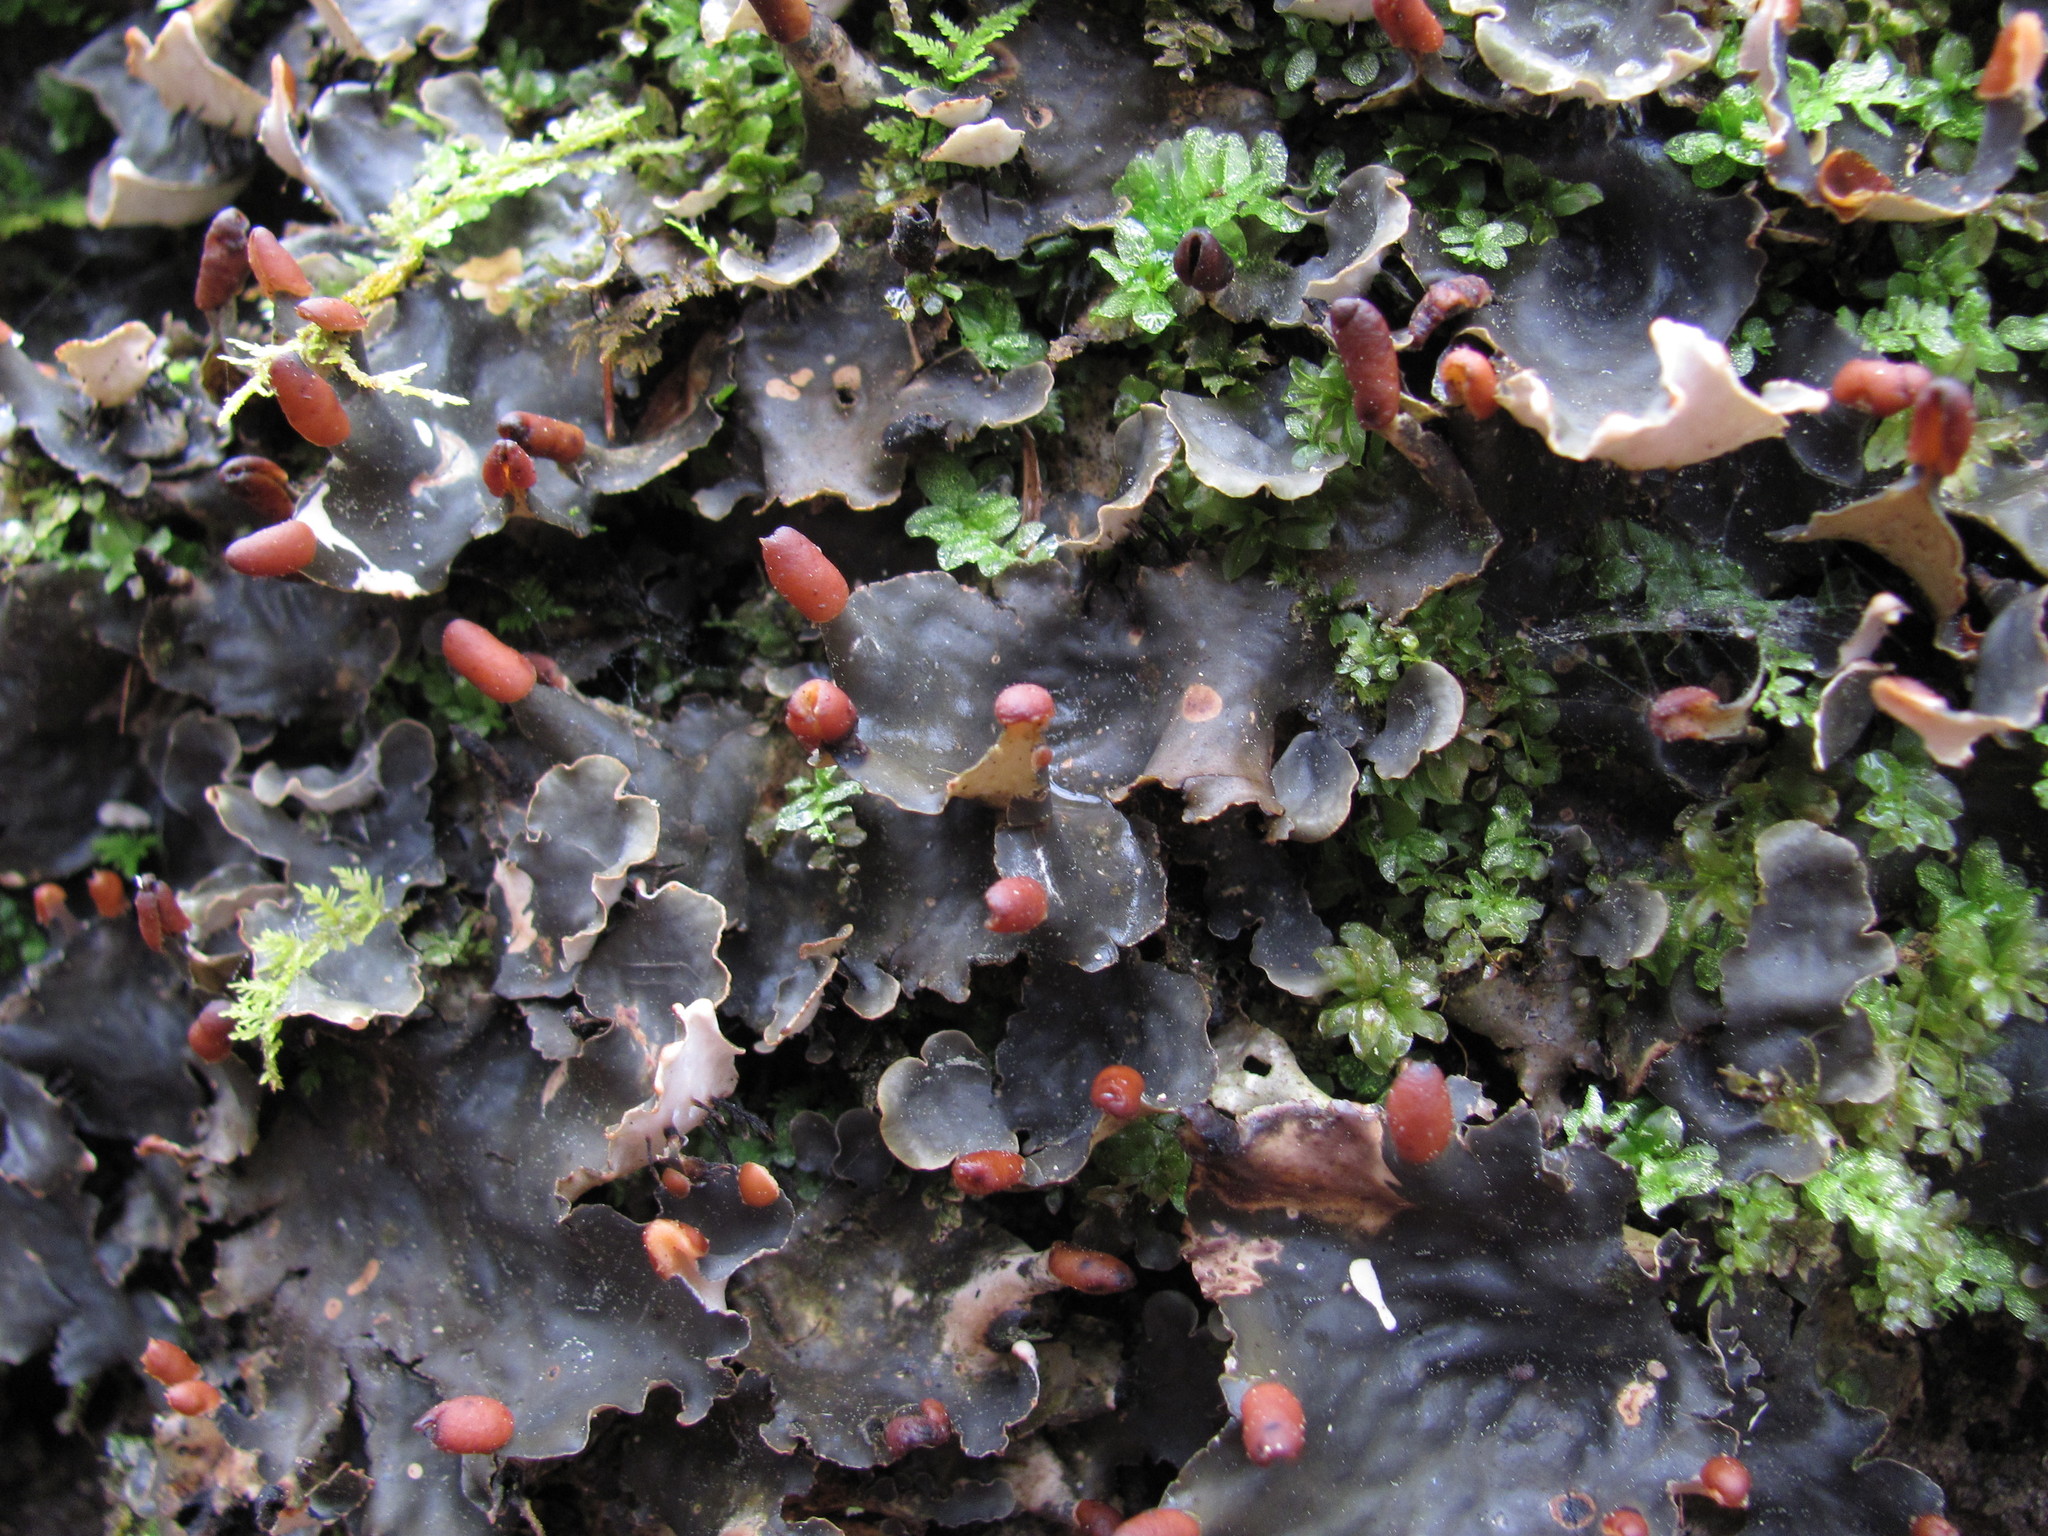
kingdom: Fungi
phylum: Ascomycota
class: Lecanoromycetes
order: Peltigerales
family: Peltigeraceae
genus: Peltigera
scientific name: Peltigera praetextata
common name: Scaly dog-lichen
